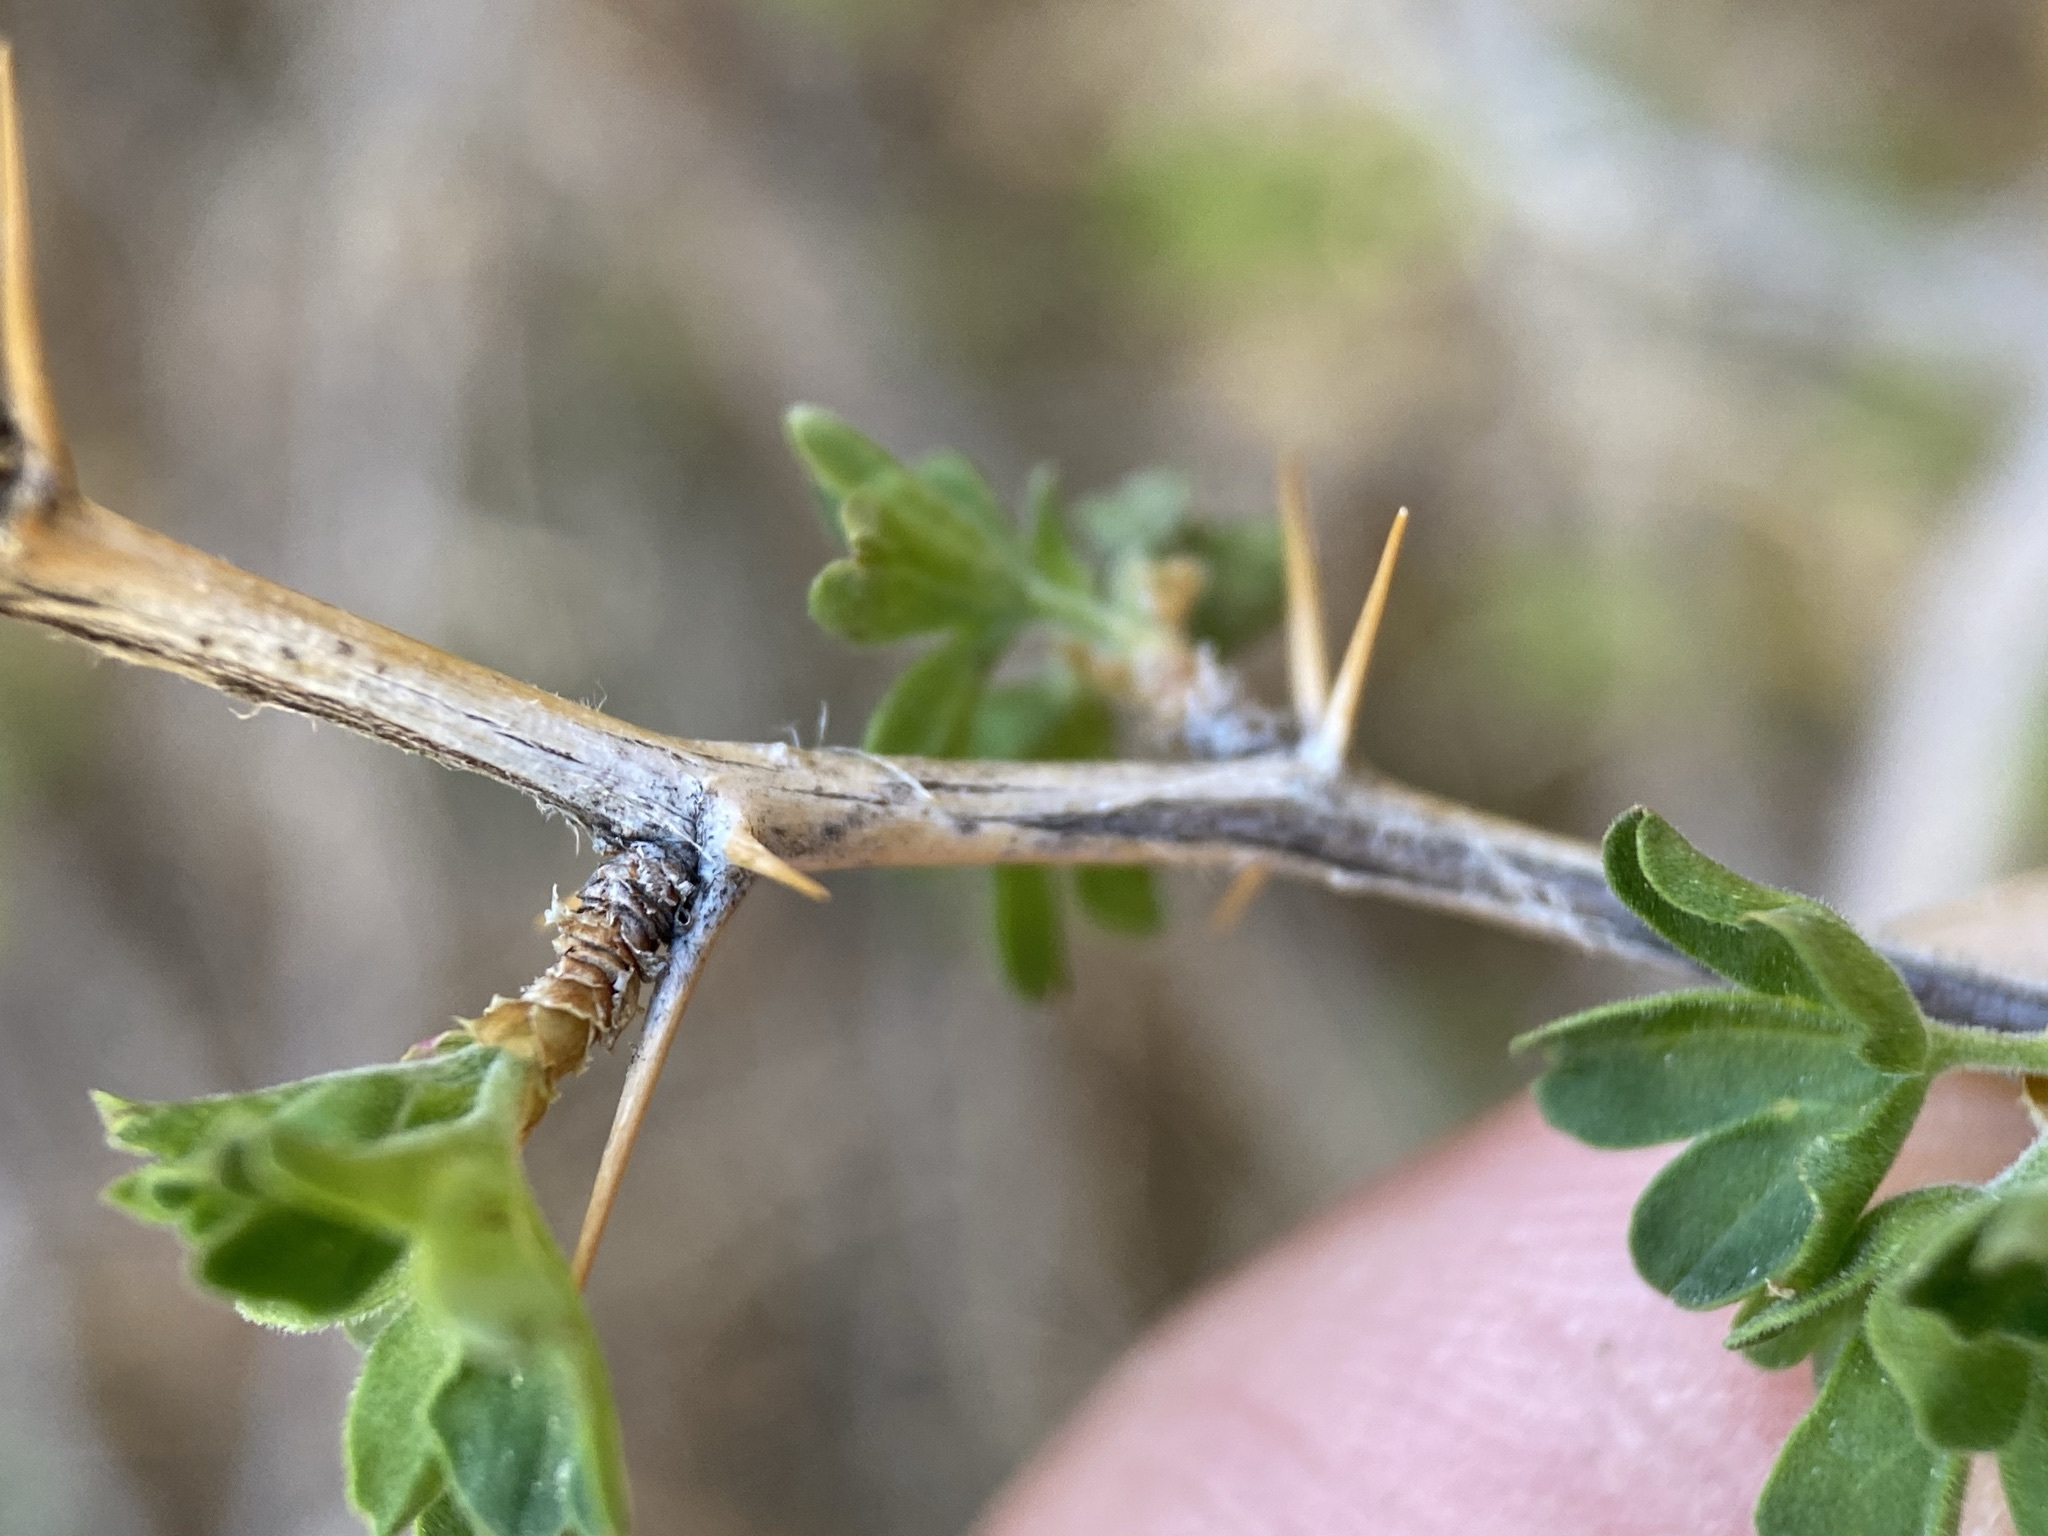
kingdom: Plantae
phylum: Tracheophyta
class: Magnoliopsida
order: Saxifragales
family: Grossulariaceae
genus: Ribes
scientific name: Ribes velutinum
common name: Desert gooseberry
